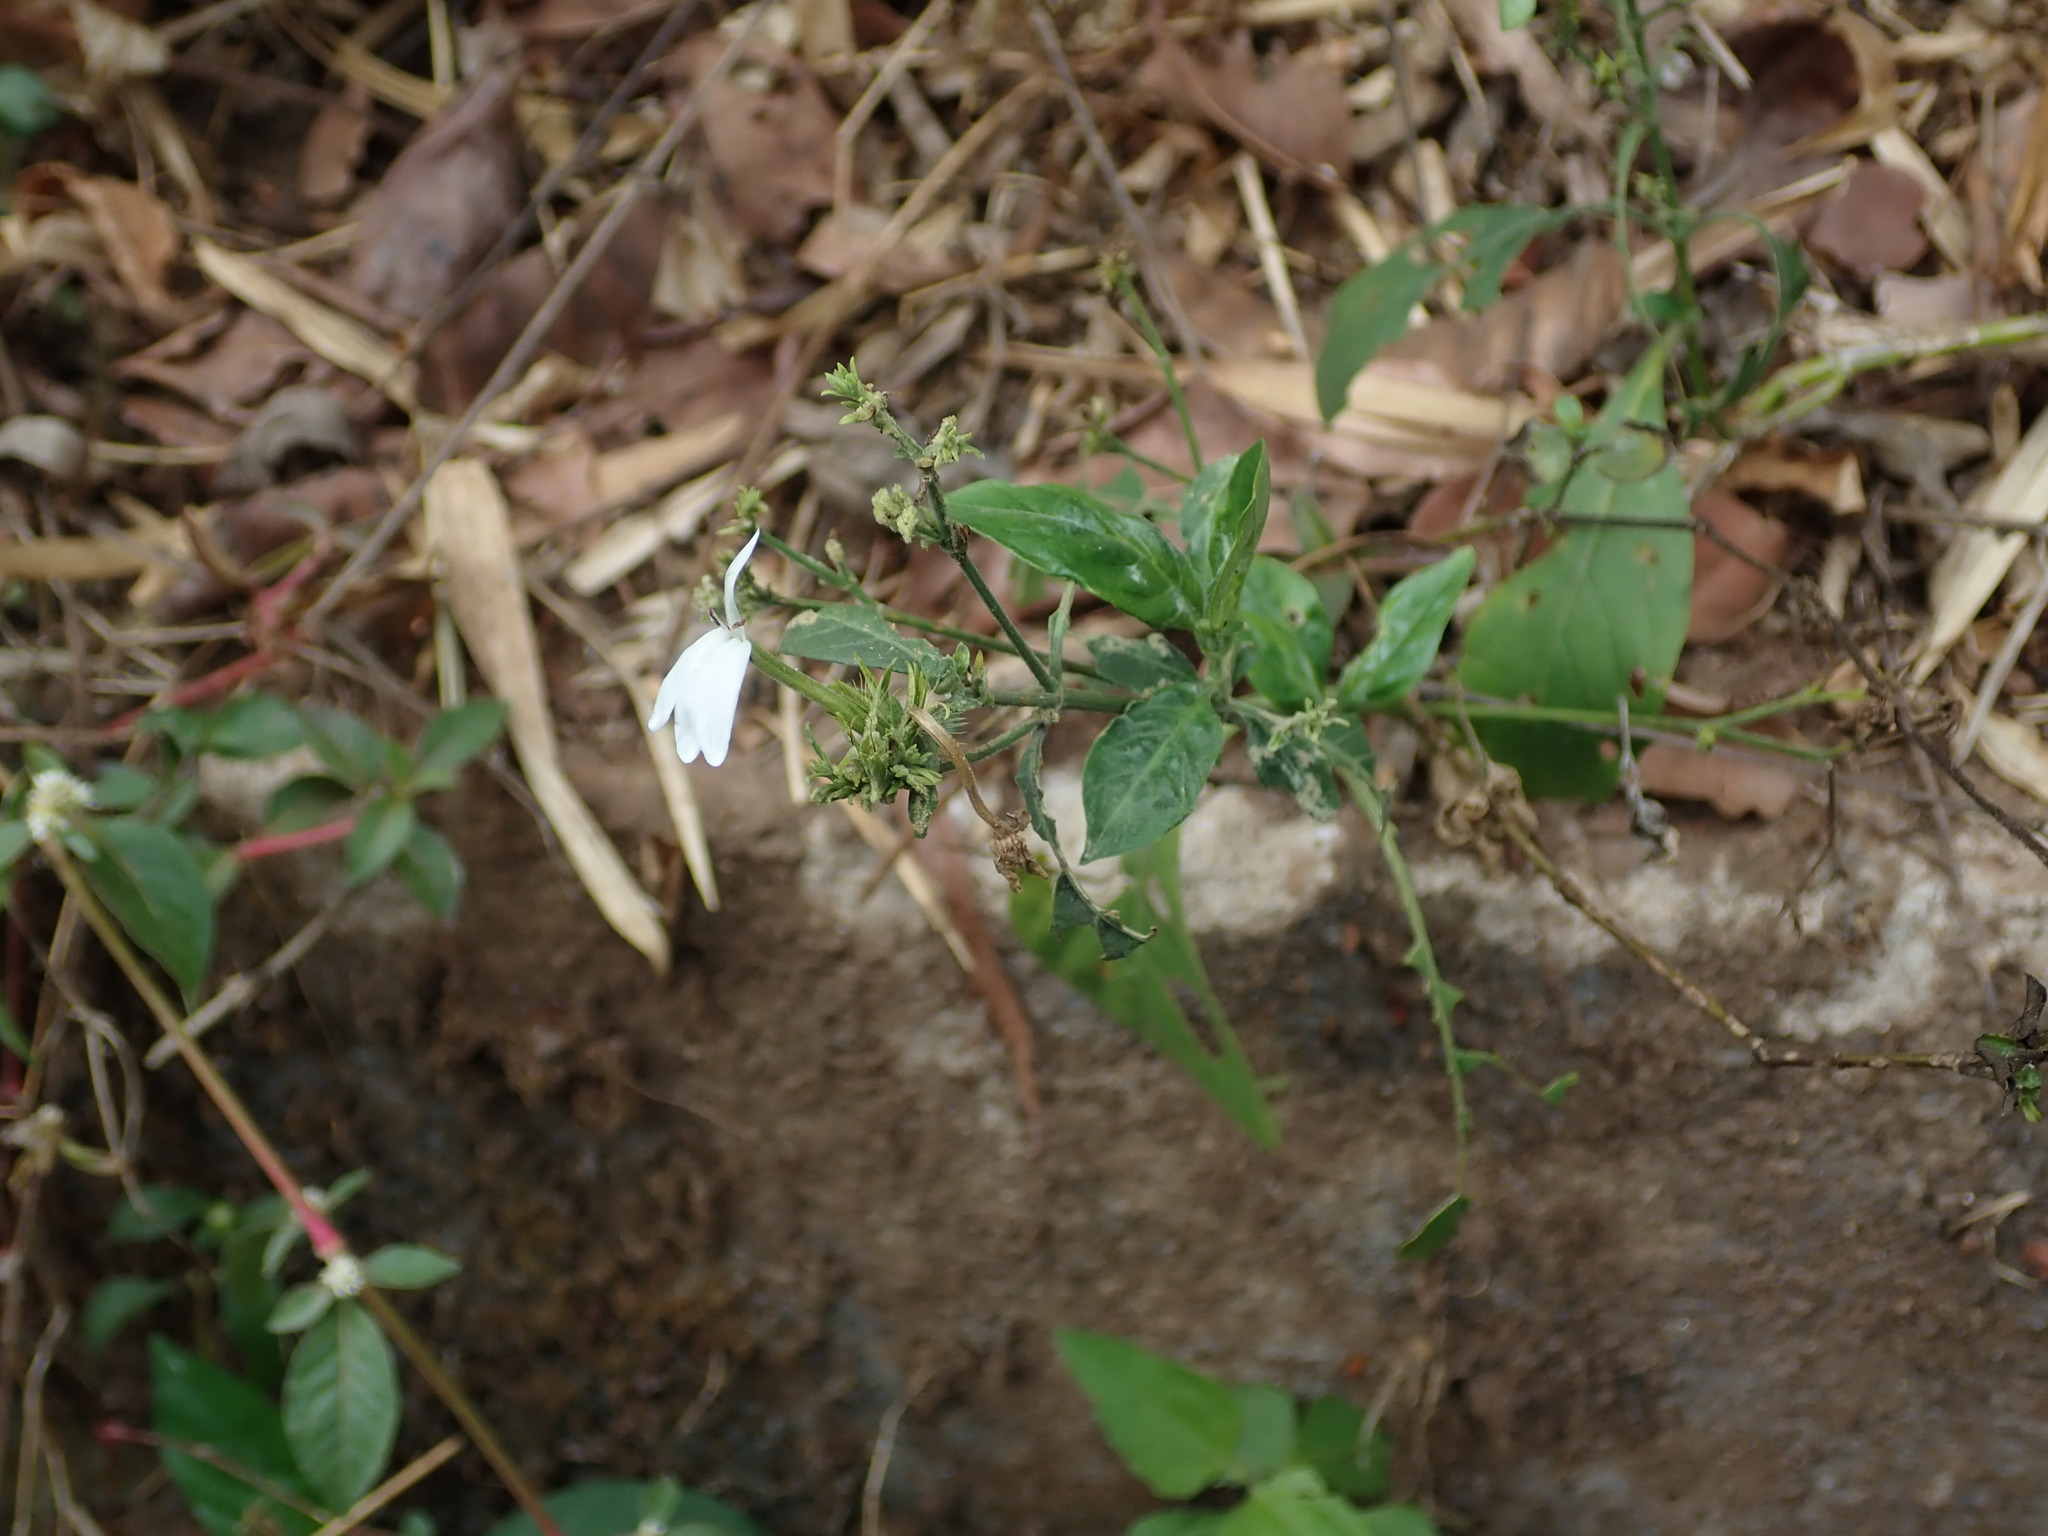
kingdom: Plantae
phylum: Tracheophyta
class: Magnoliopsida
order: Lamiales
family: Acanthaceae
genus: Rhinacanthus
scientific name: Rhinacanthus nasutus
